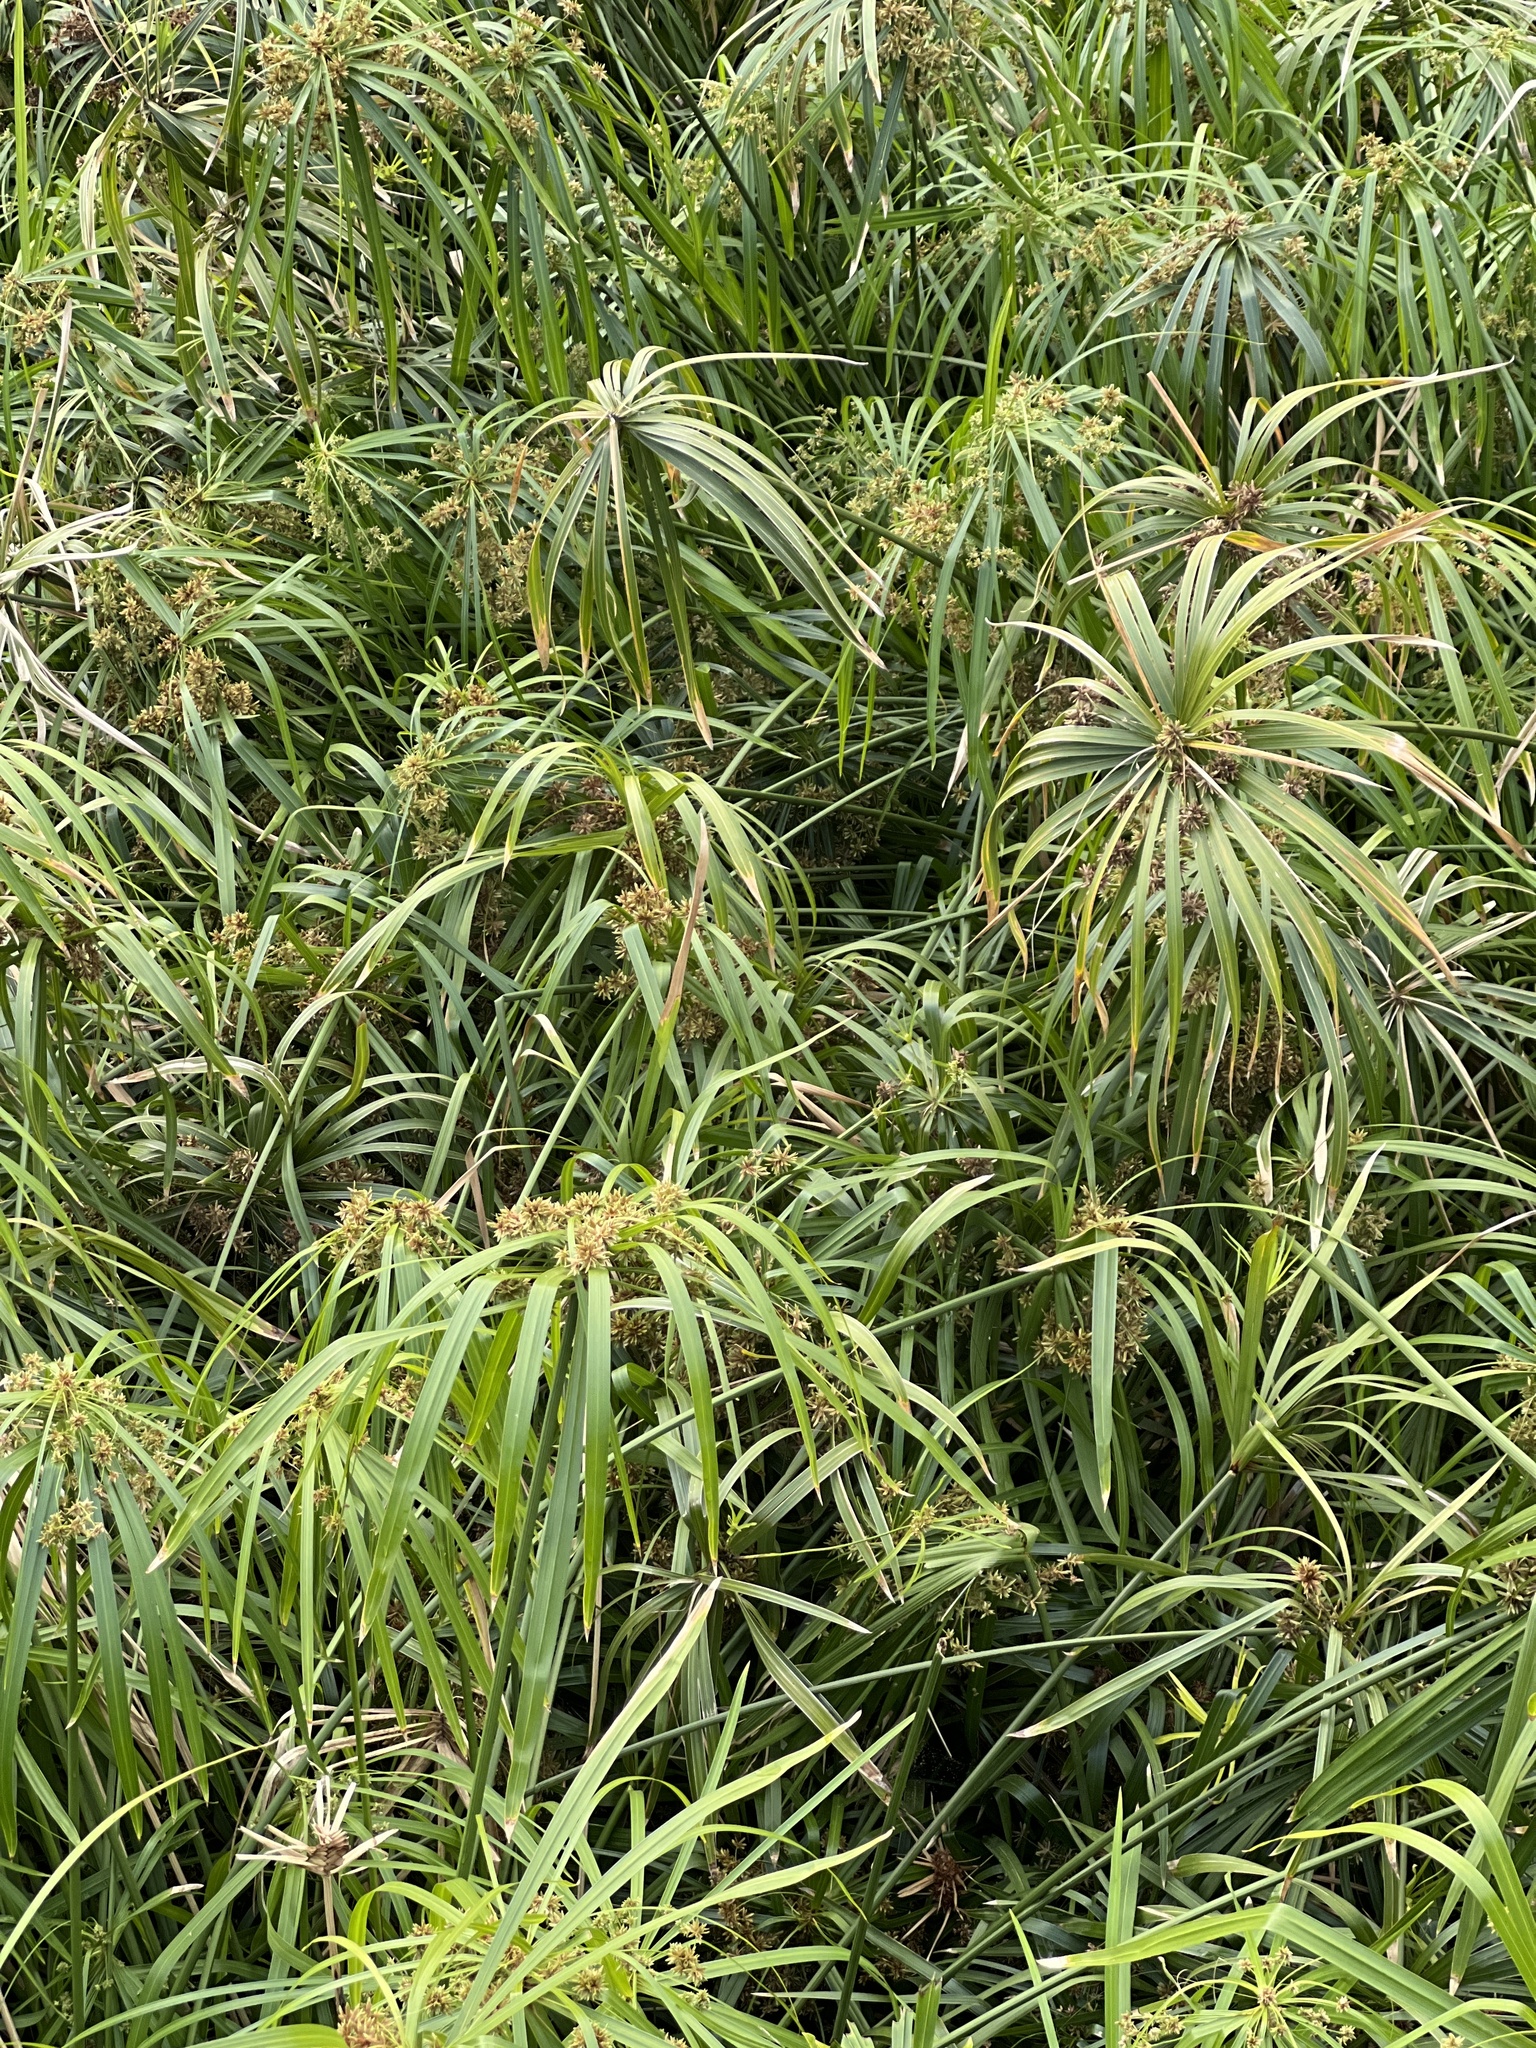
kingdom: Plantae
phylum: Tracheophyta
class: Liliopsida
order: Poales
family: Cyperaceae
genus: Cyperus
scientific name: Cyperus alternifolius
